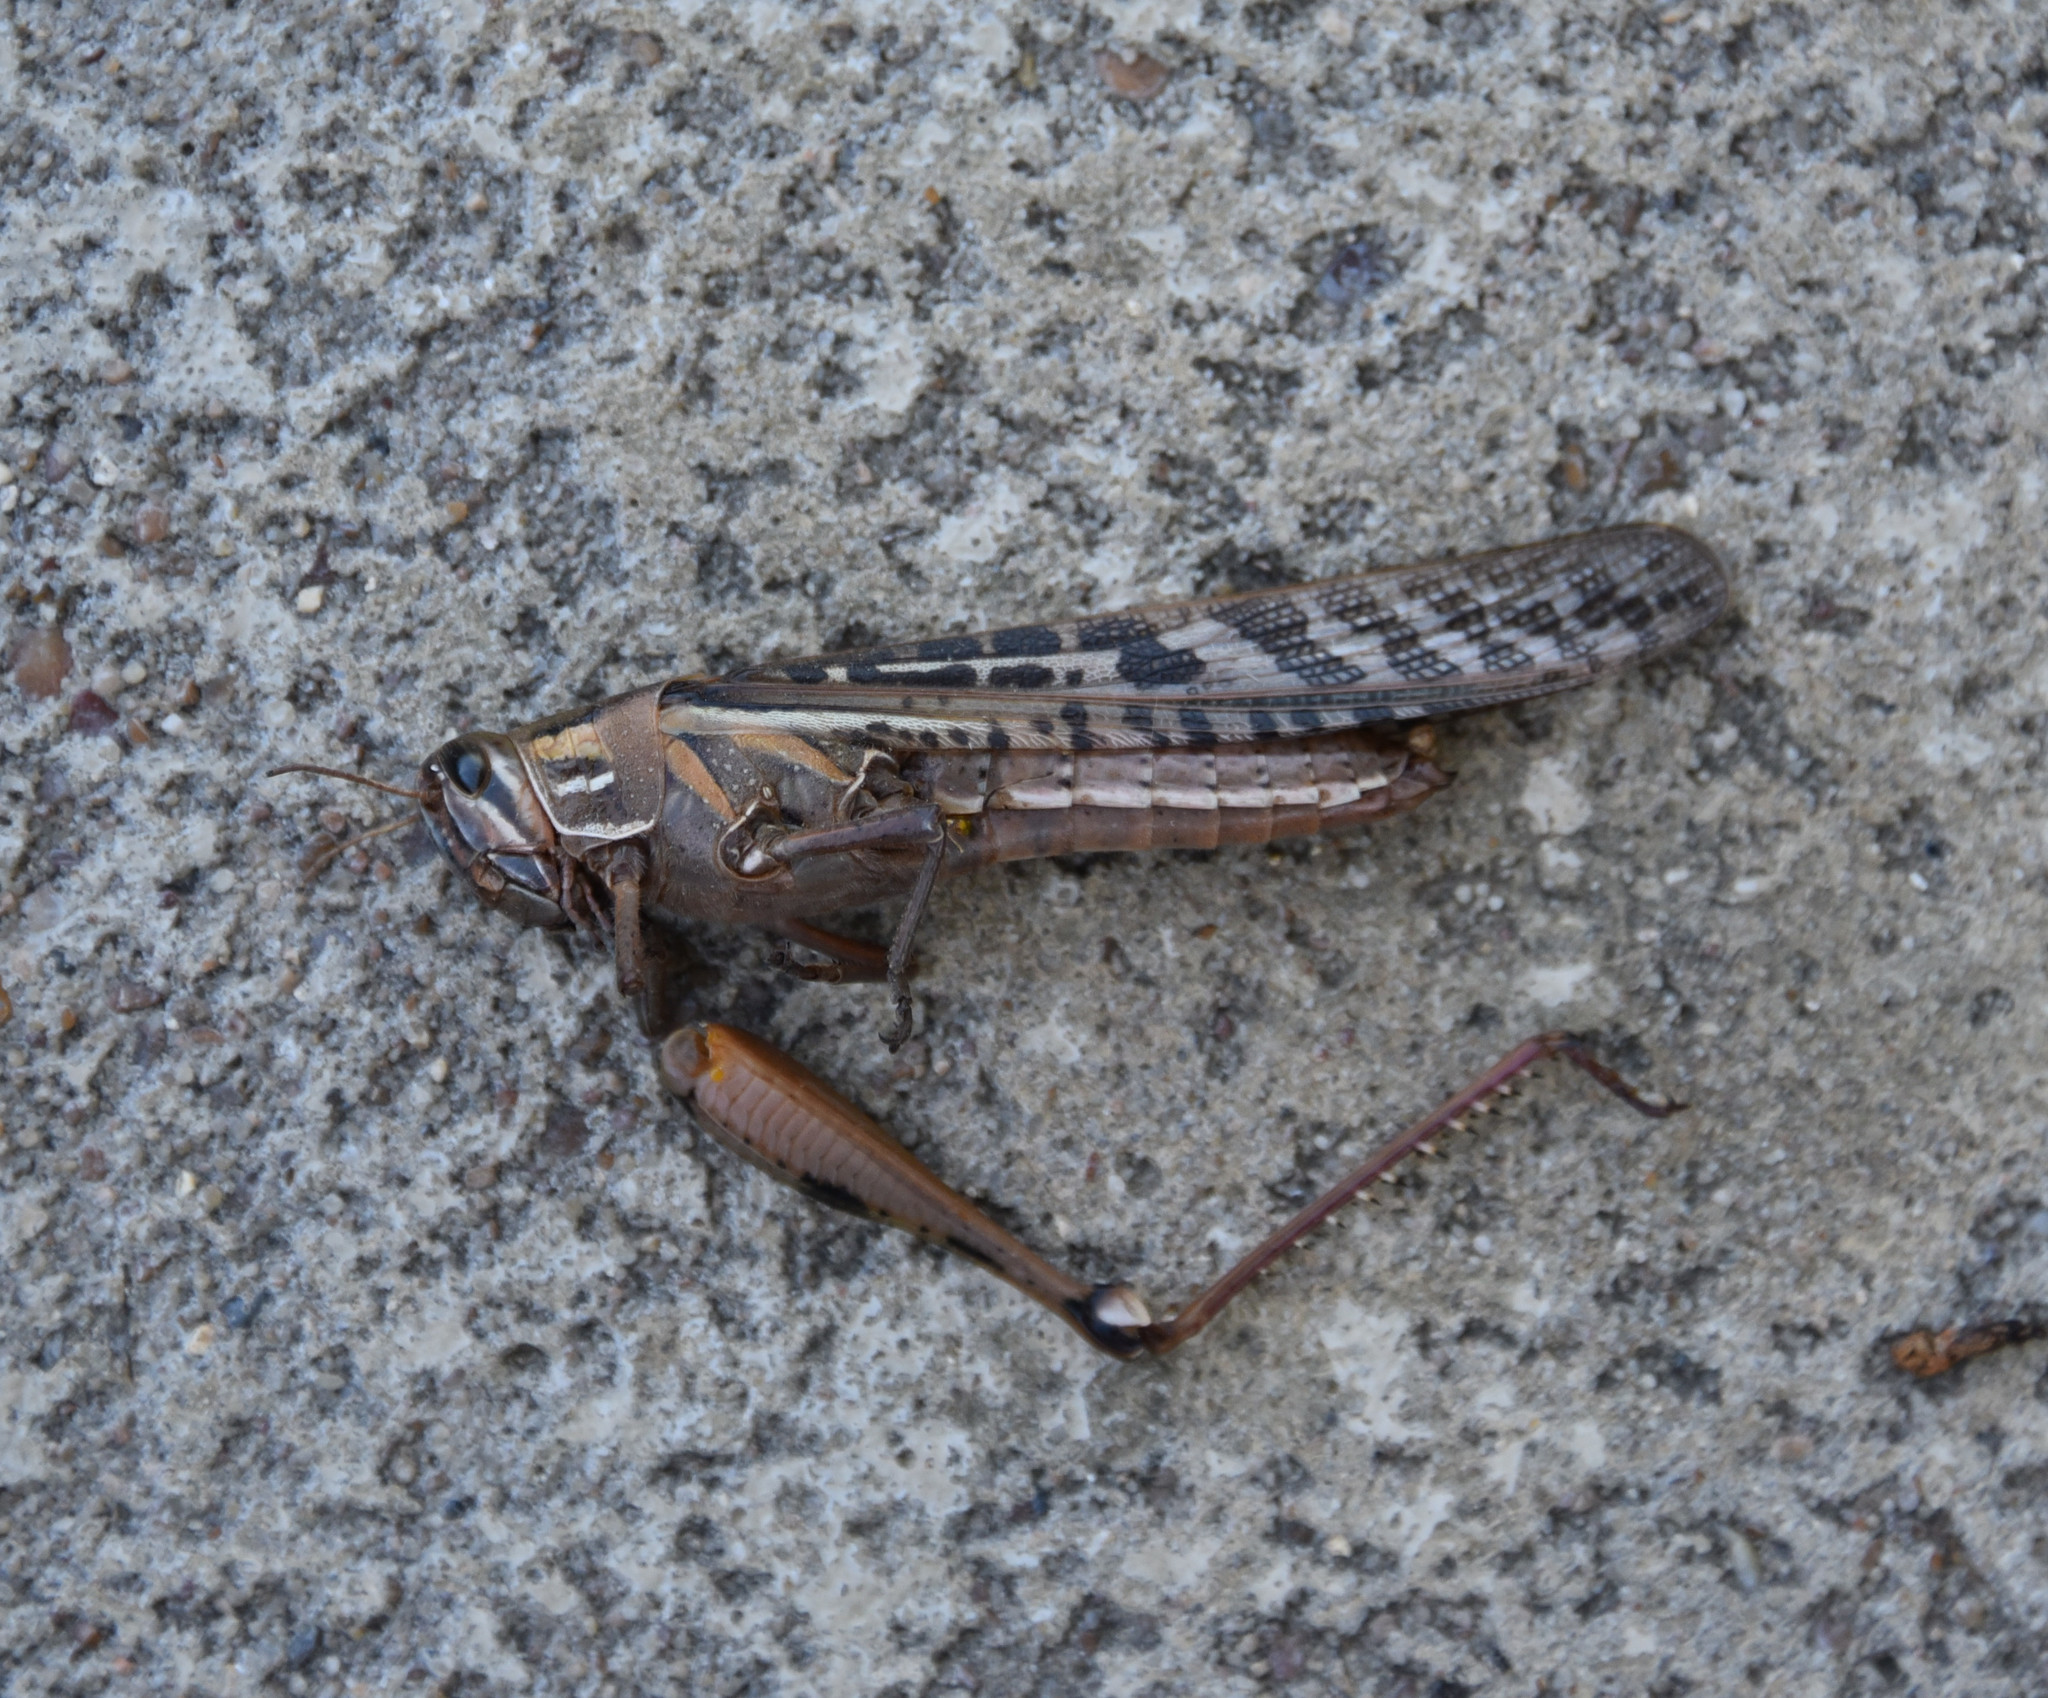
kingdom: Animalia
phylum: Arthropoda
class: Insecta
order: Orthoptera
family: Acrididae
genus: Schistocerca
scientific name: Schistocerca americana
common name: American bird locust
